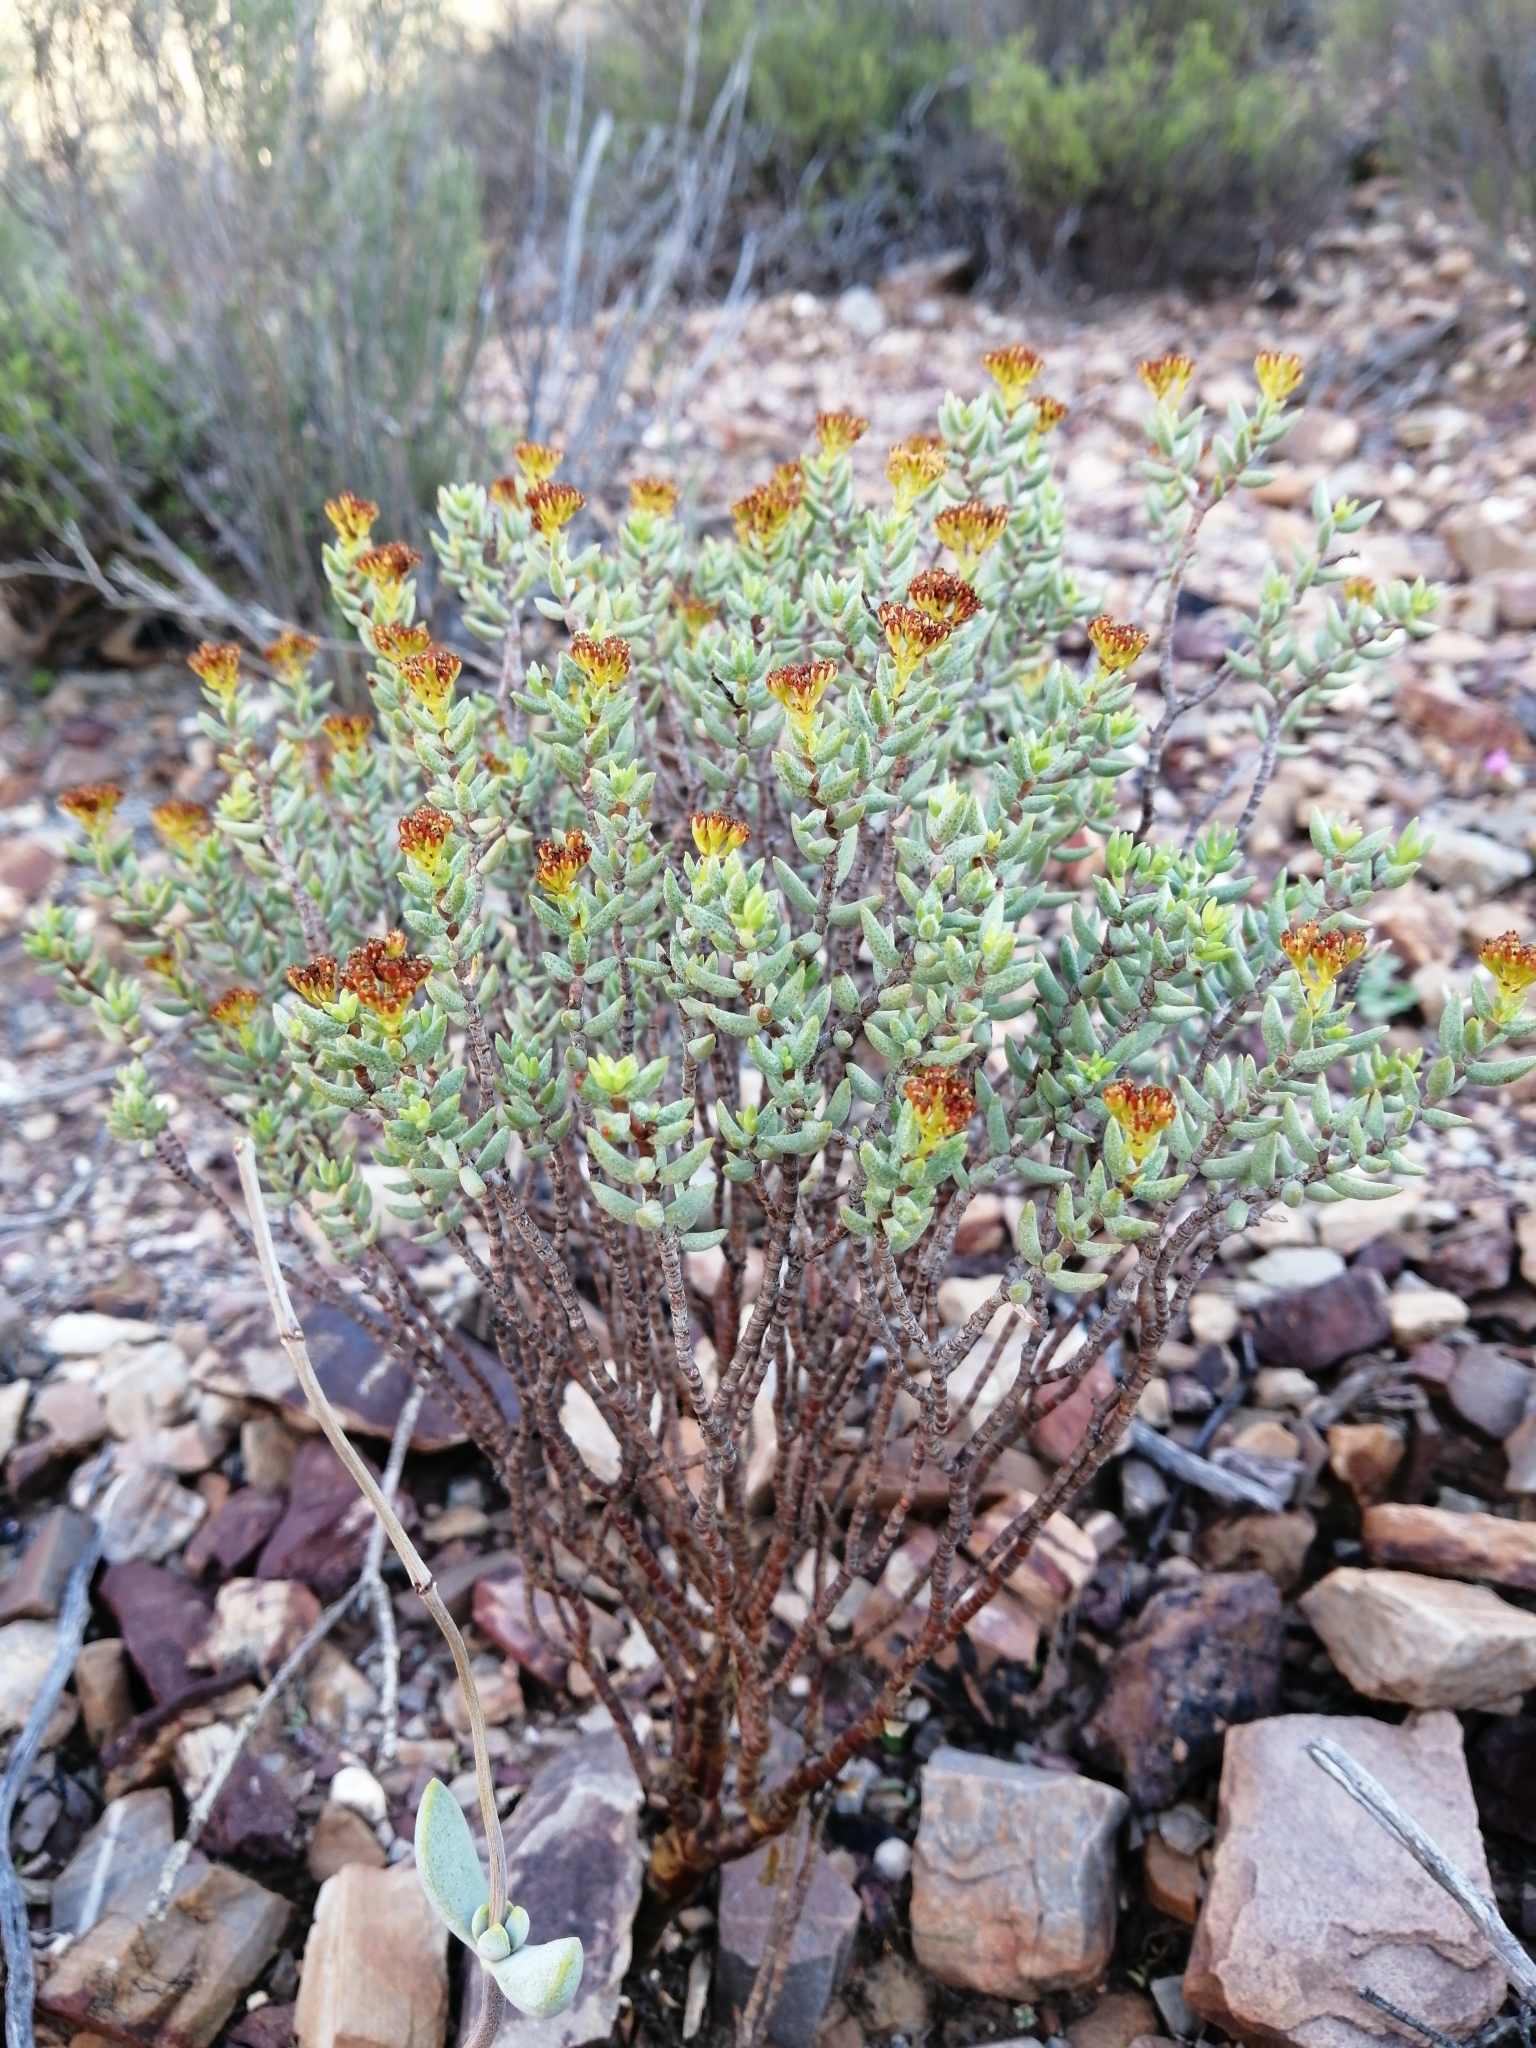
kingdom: Plantae
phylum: Tracheophyta
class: Magnoliopsida
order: Saxifragales
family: Crassulaceae
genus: Crassula
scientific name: Crassula tetragona
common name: Pygmyweed
